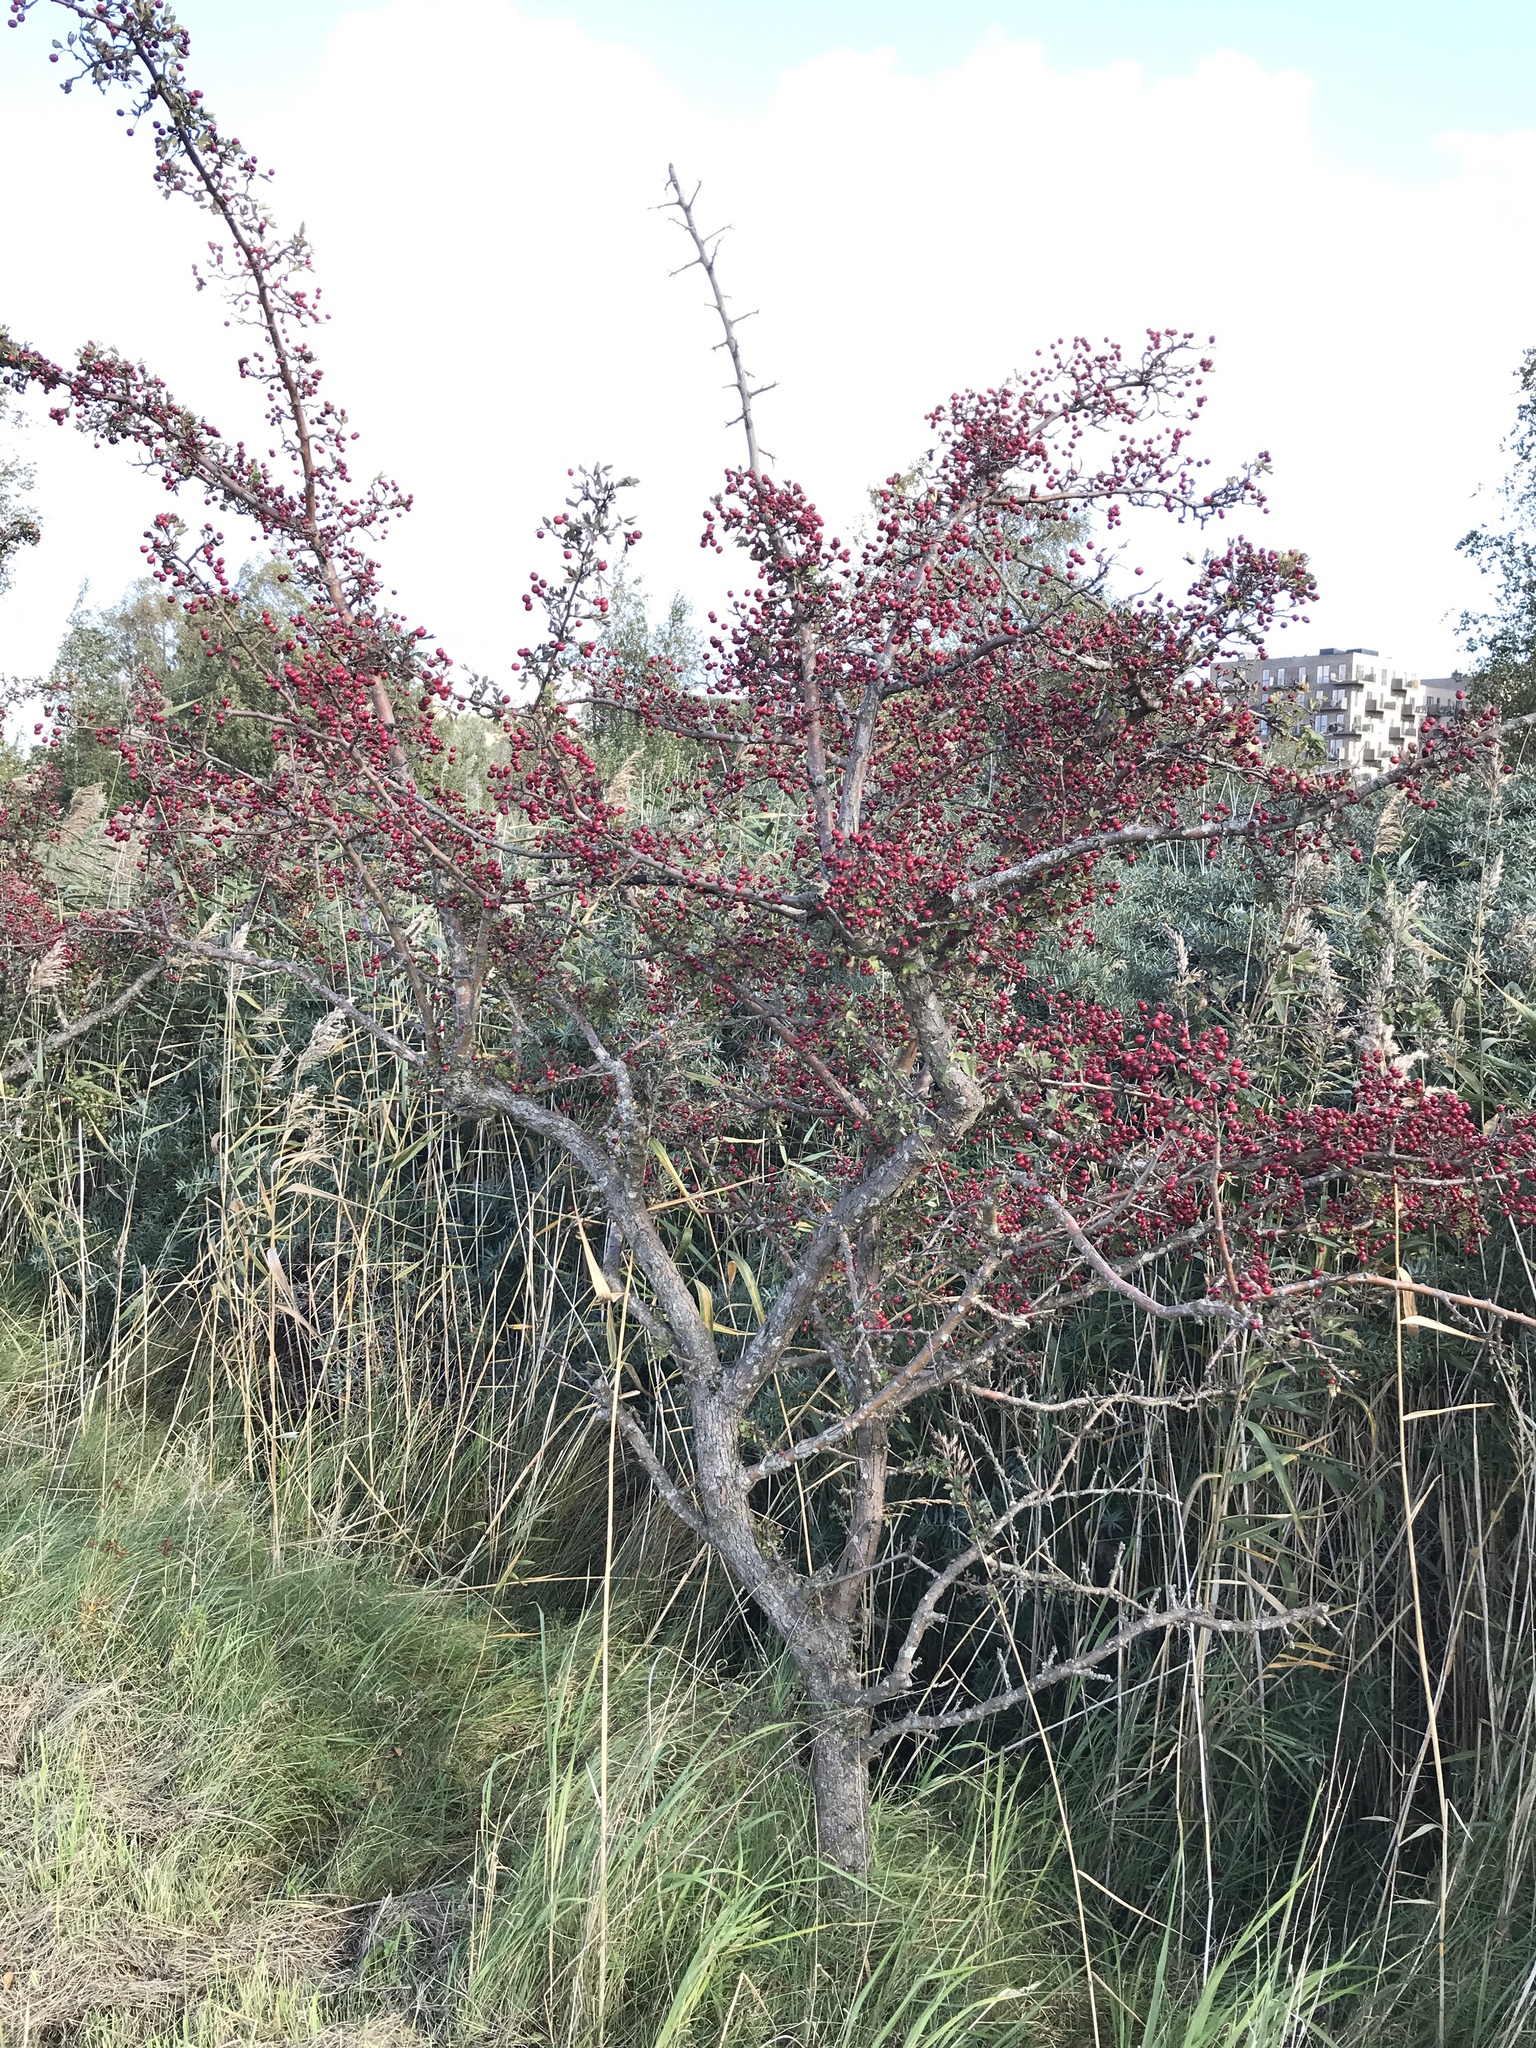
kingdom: Plantae
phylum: Tracheophyta
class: Magnoliopsida
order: Rosales
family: Rosaceae
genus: Crataegus
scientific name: Crataegus monogyna
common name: Hawthorn
